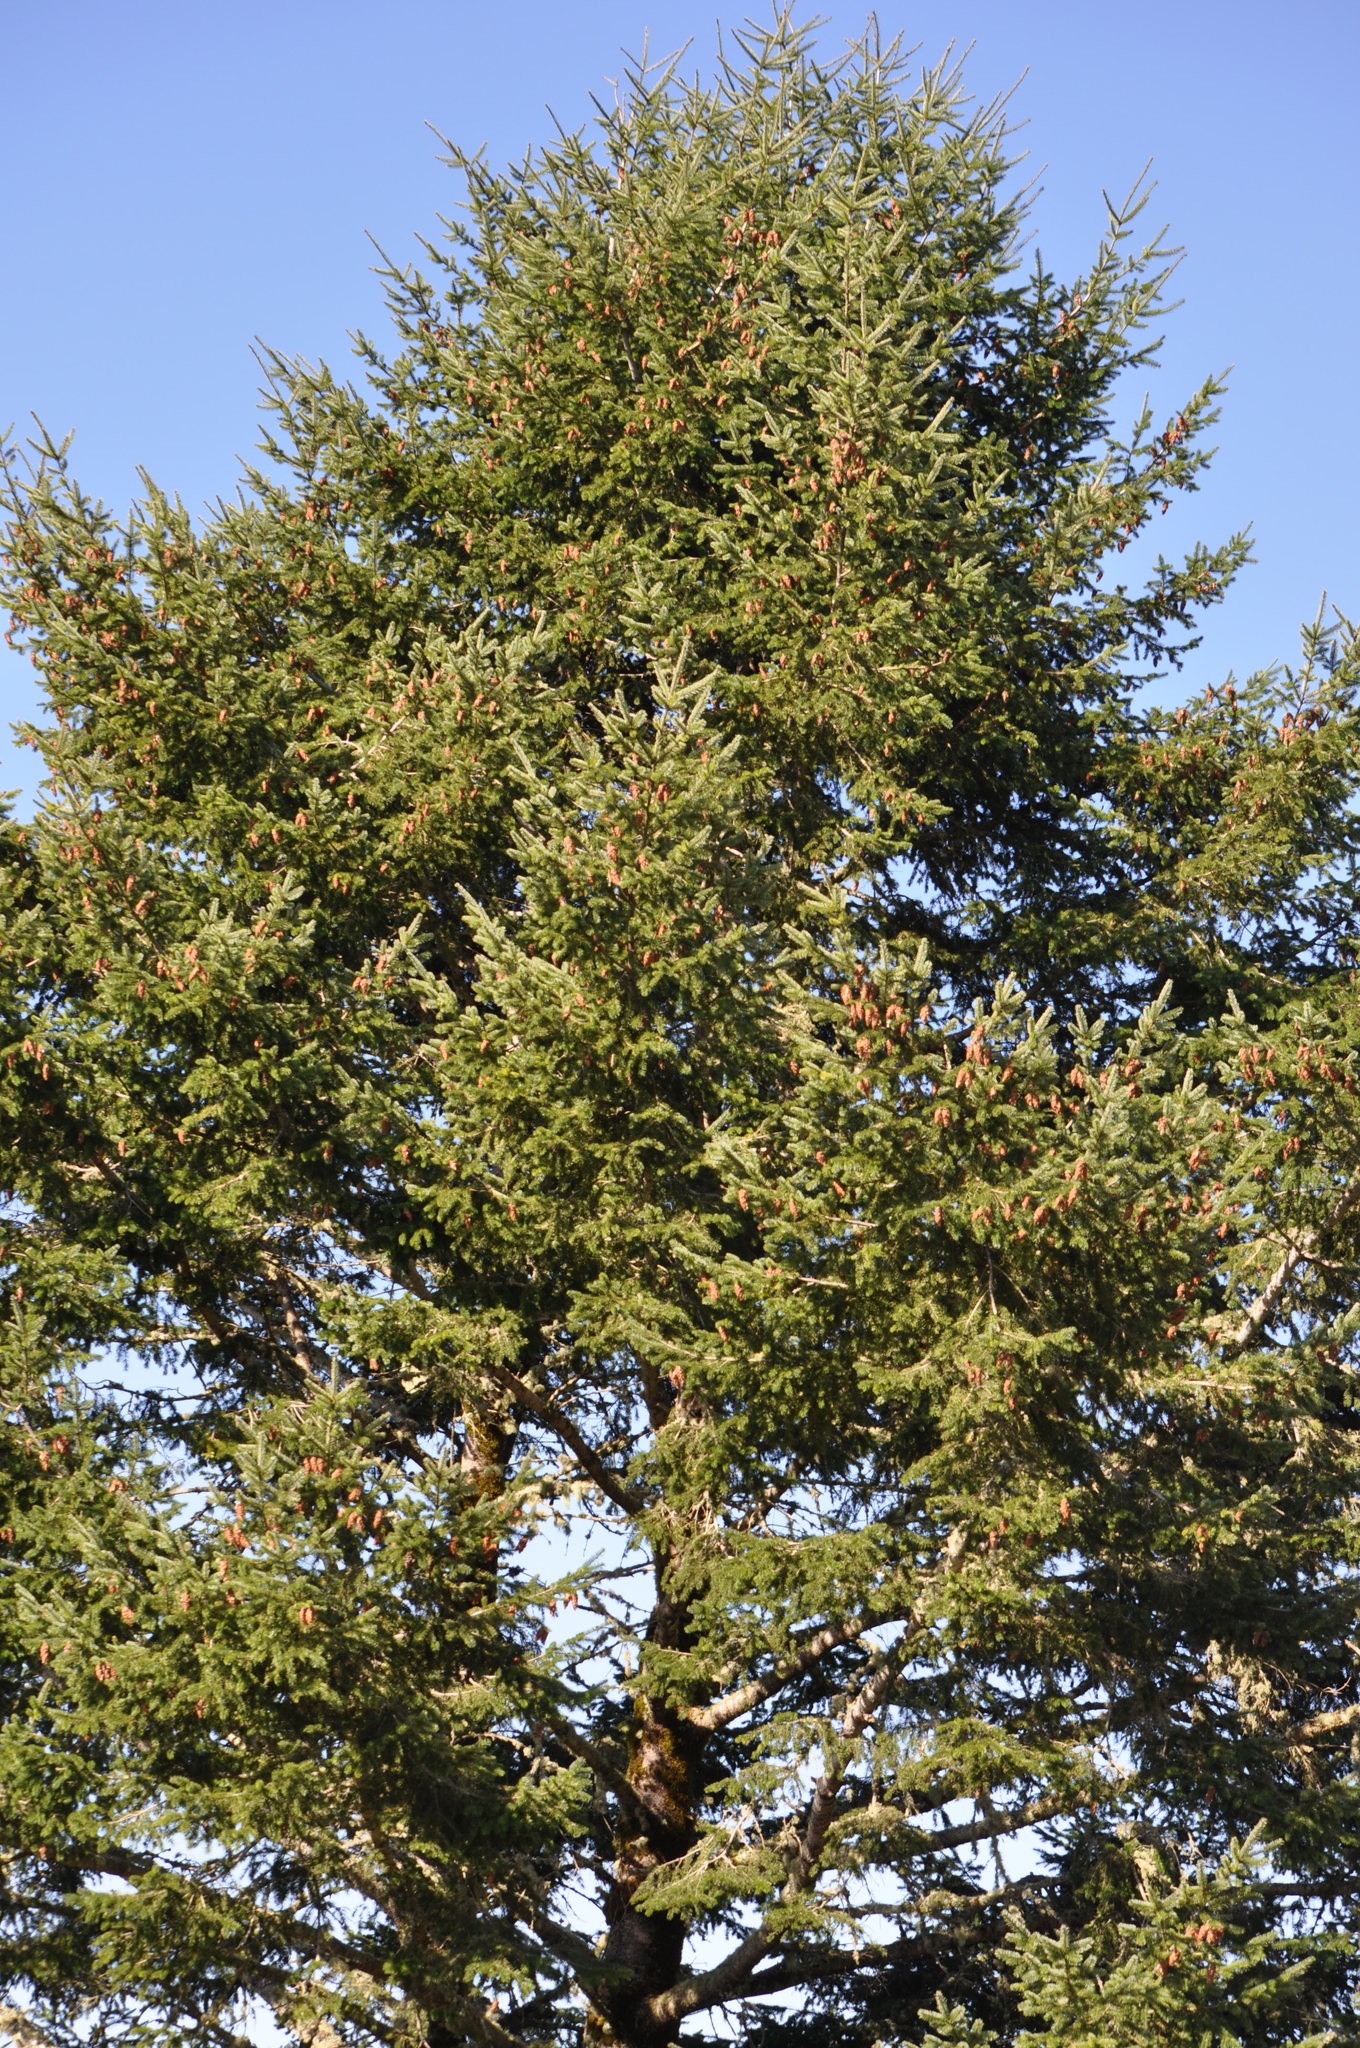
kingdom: Plantae
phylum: Tracheophyta
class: Pinopsida
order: Pinales
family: Pinaceae
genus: Pseudotsuga
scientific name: Pseudotsuga menziesii
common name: Douglas fir
